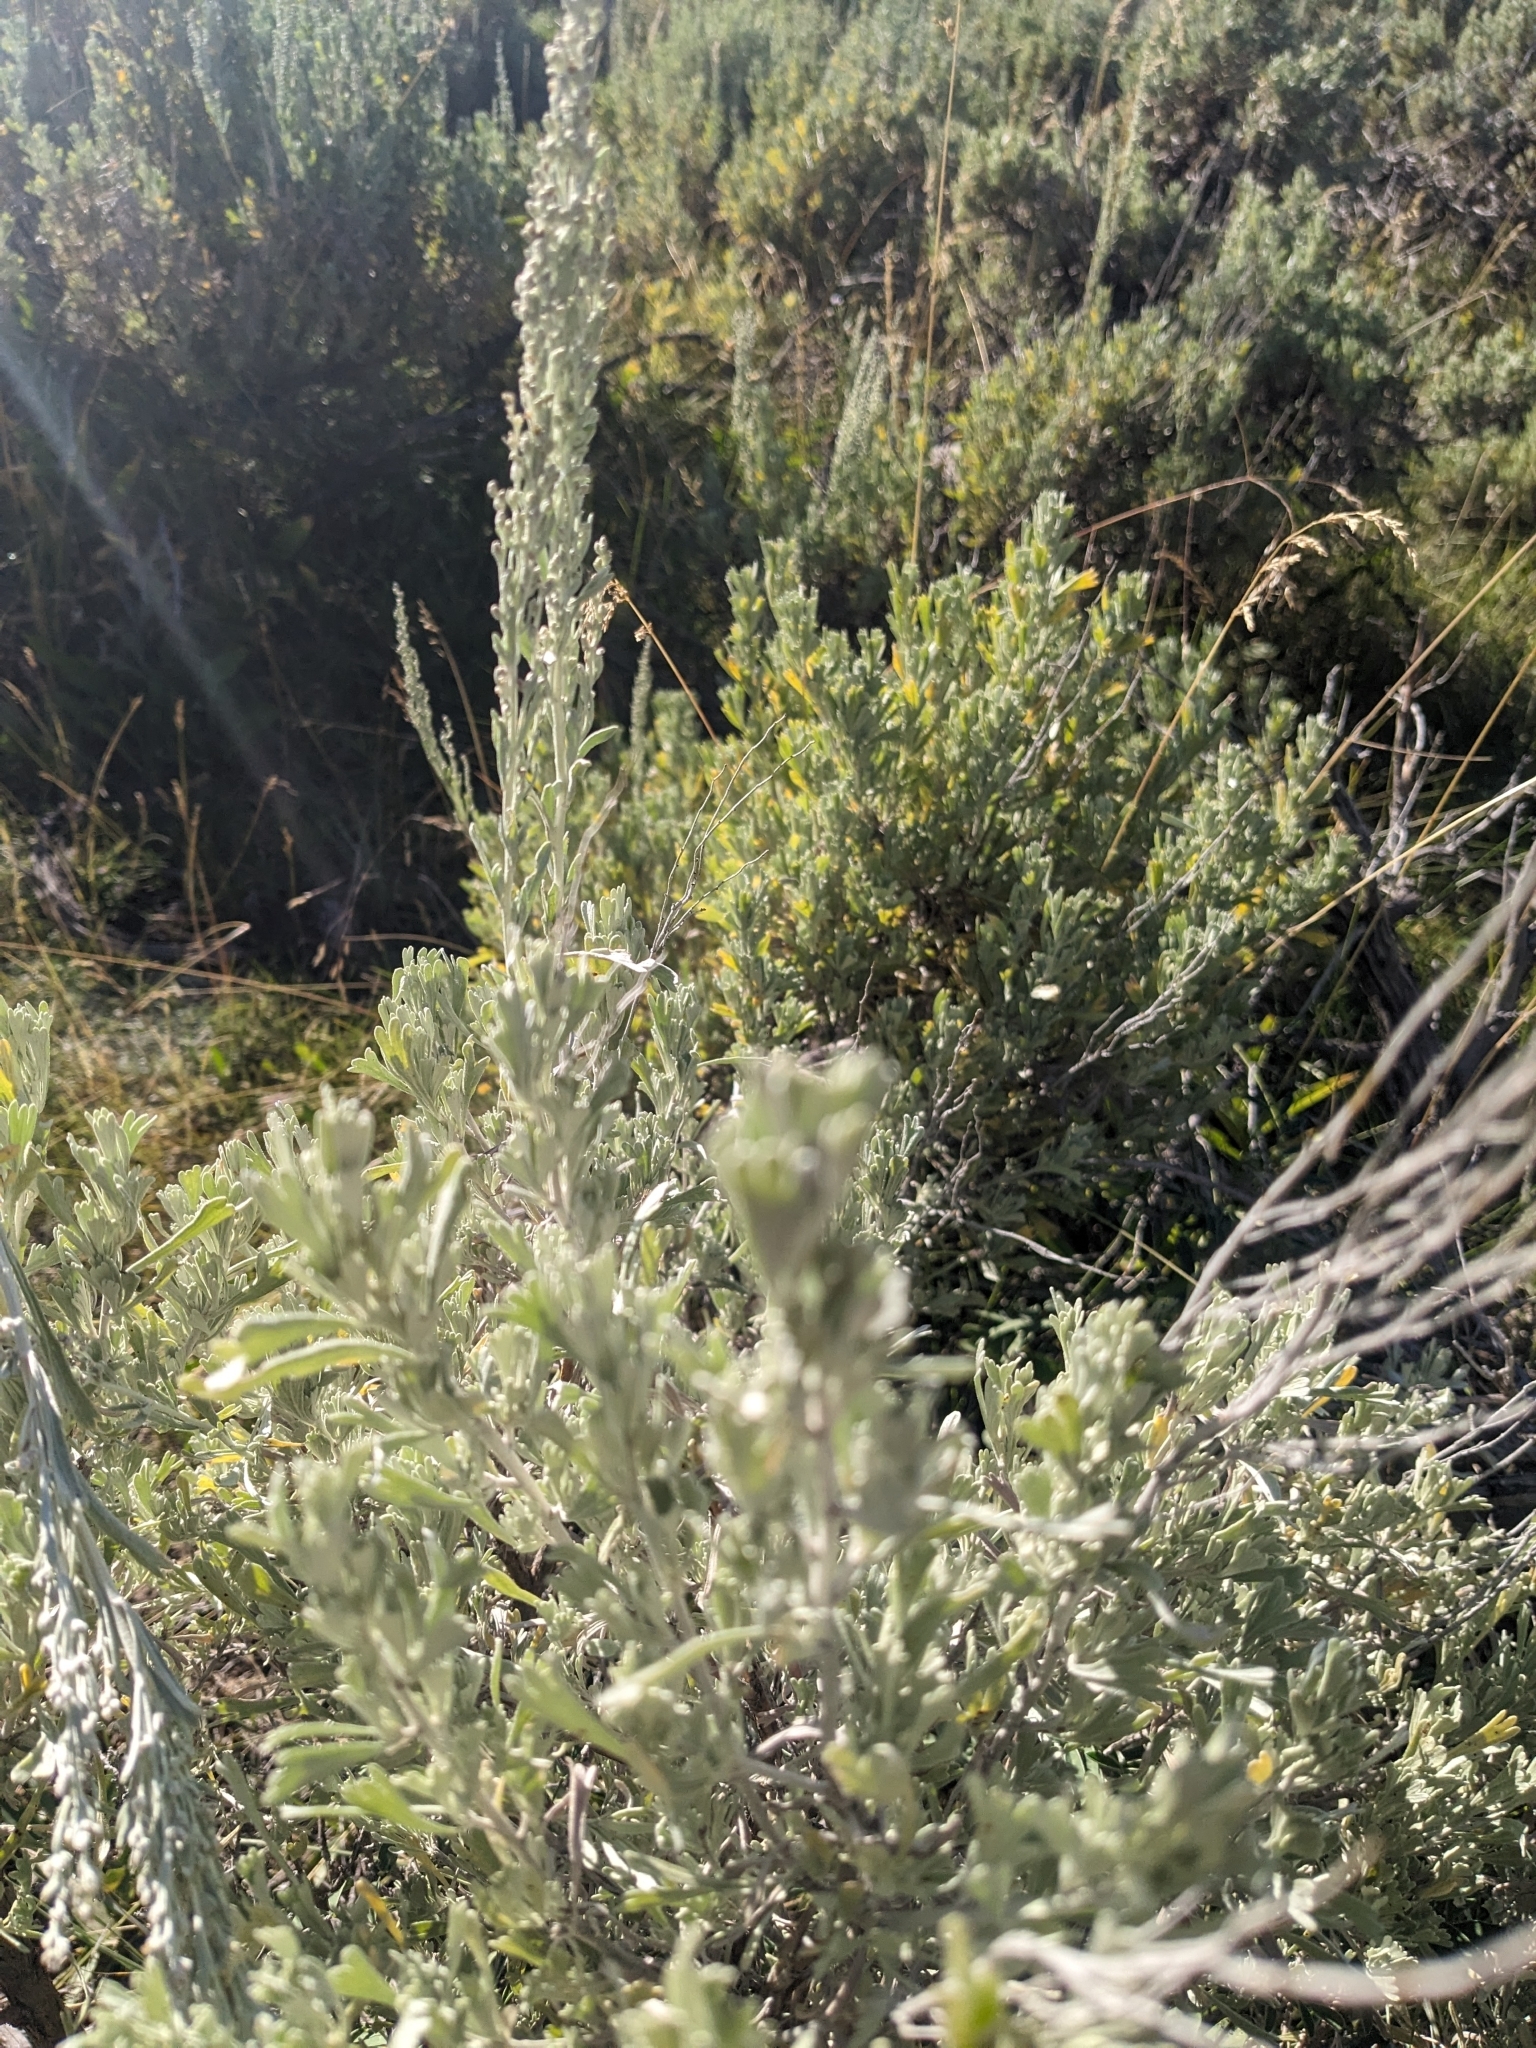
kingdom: Plantae
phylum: Tracheophyta
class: Magnoliopsida
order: Asterales
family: Asteraceae
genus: Artemisia
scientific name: Artemisia tridentata
